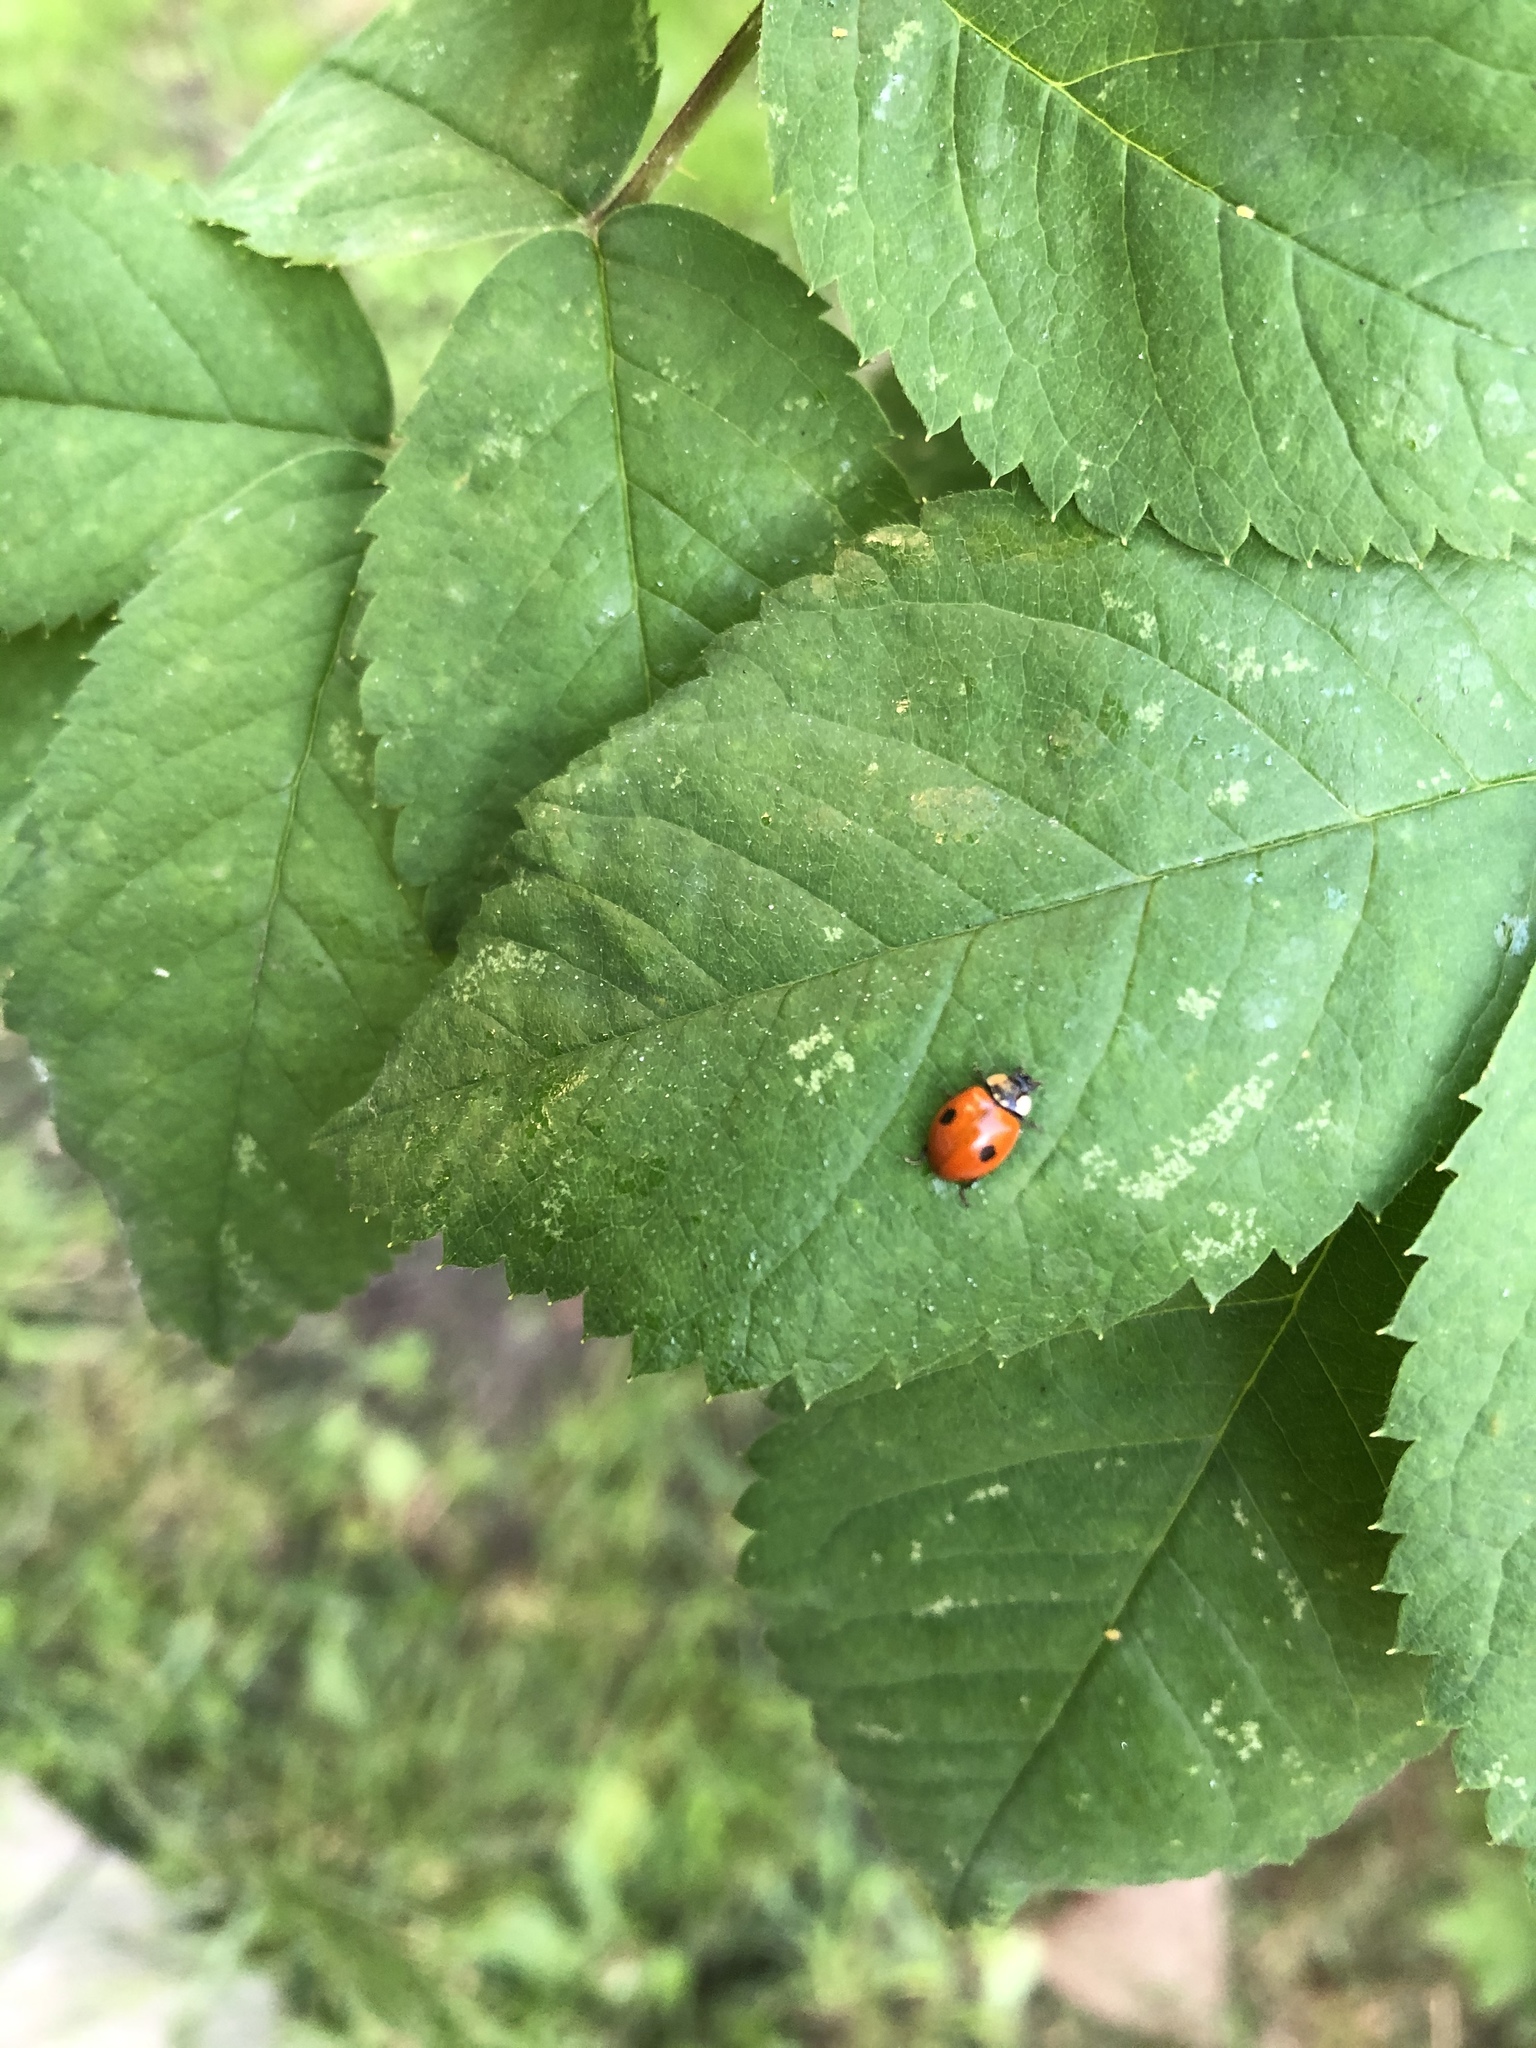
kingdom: Animalia
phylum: Arthropoda
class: Insecta
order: Coleoptera
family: Coccinellidae
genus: Adalia
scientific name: Adalia bipunctata
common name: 2-spot ladybird
